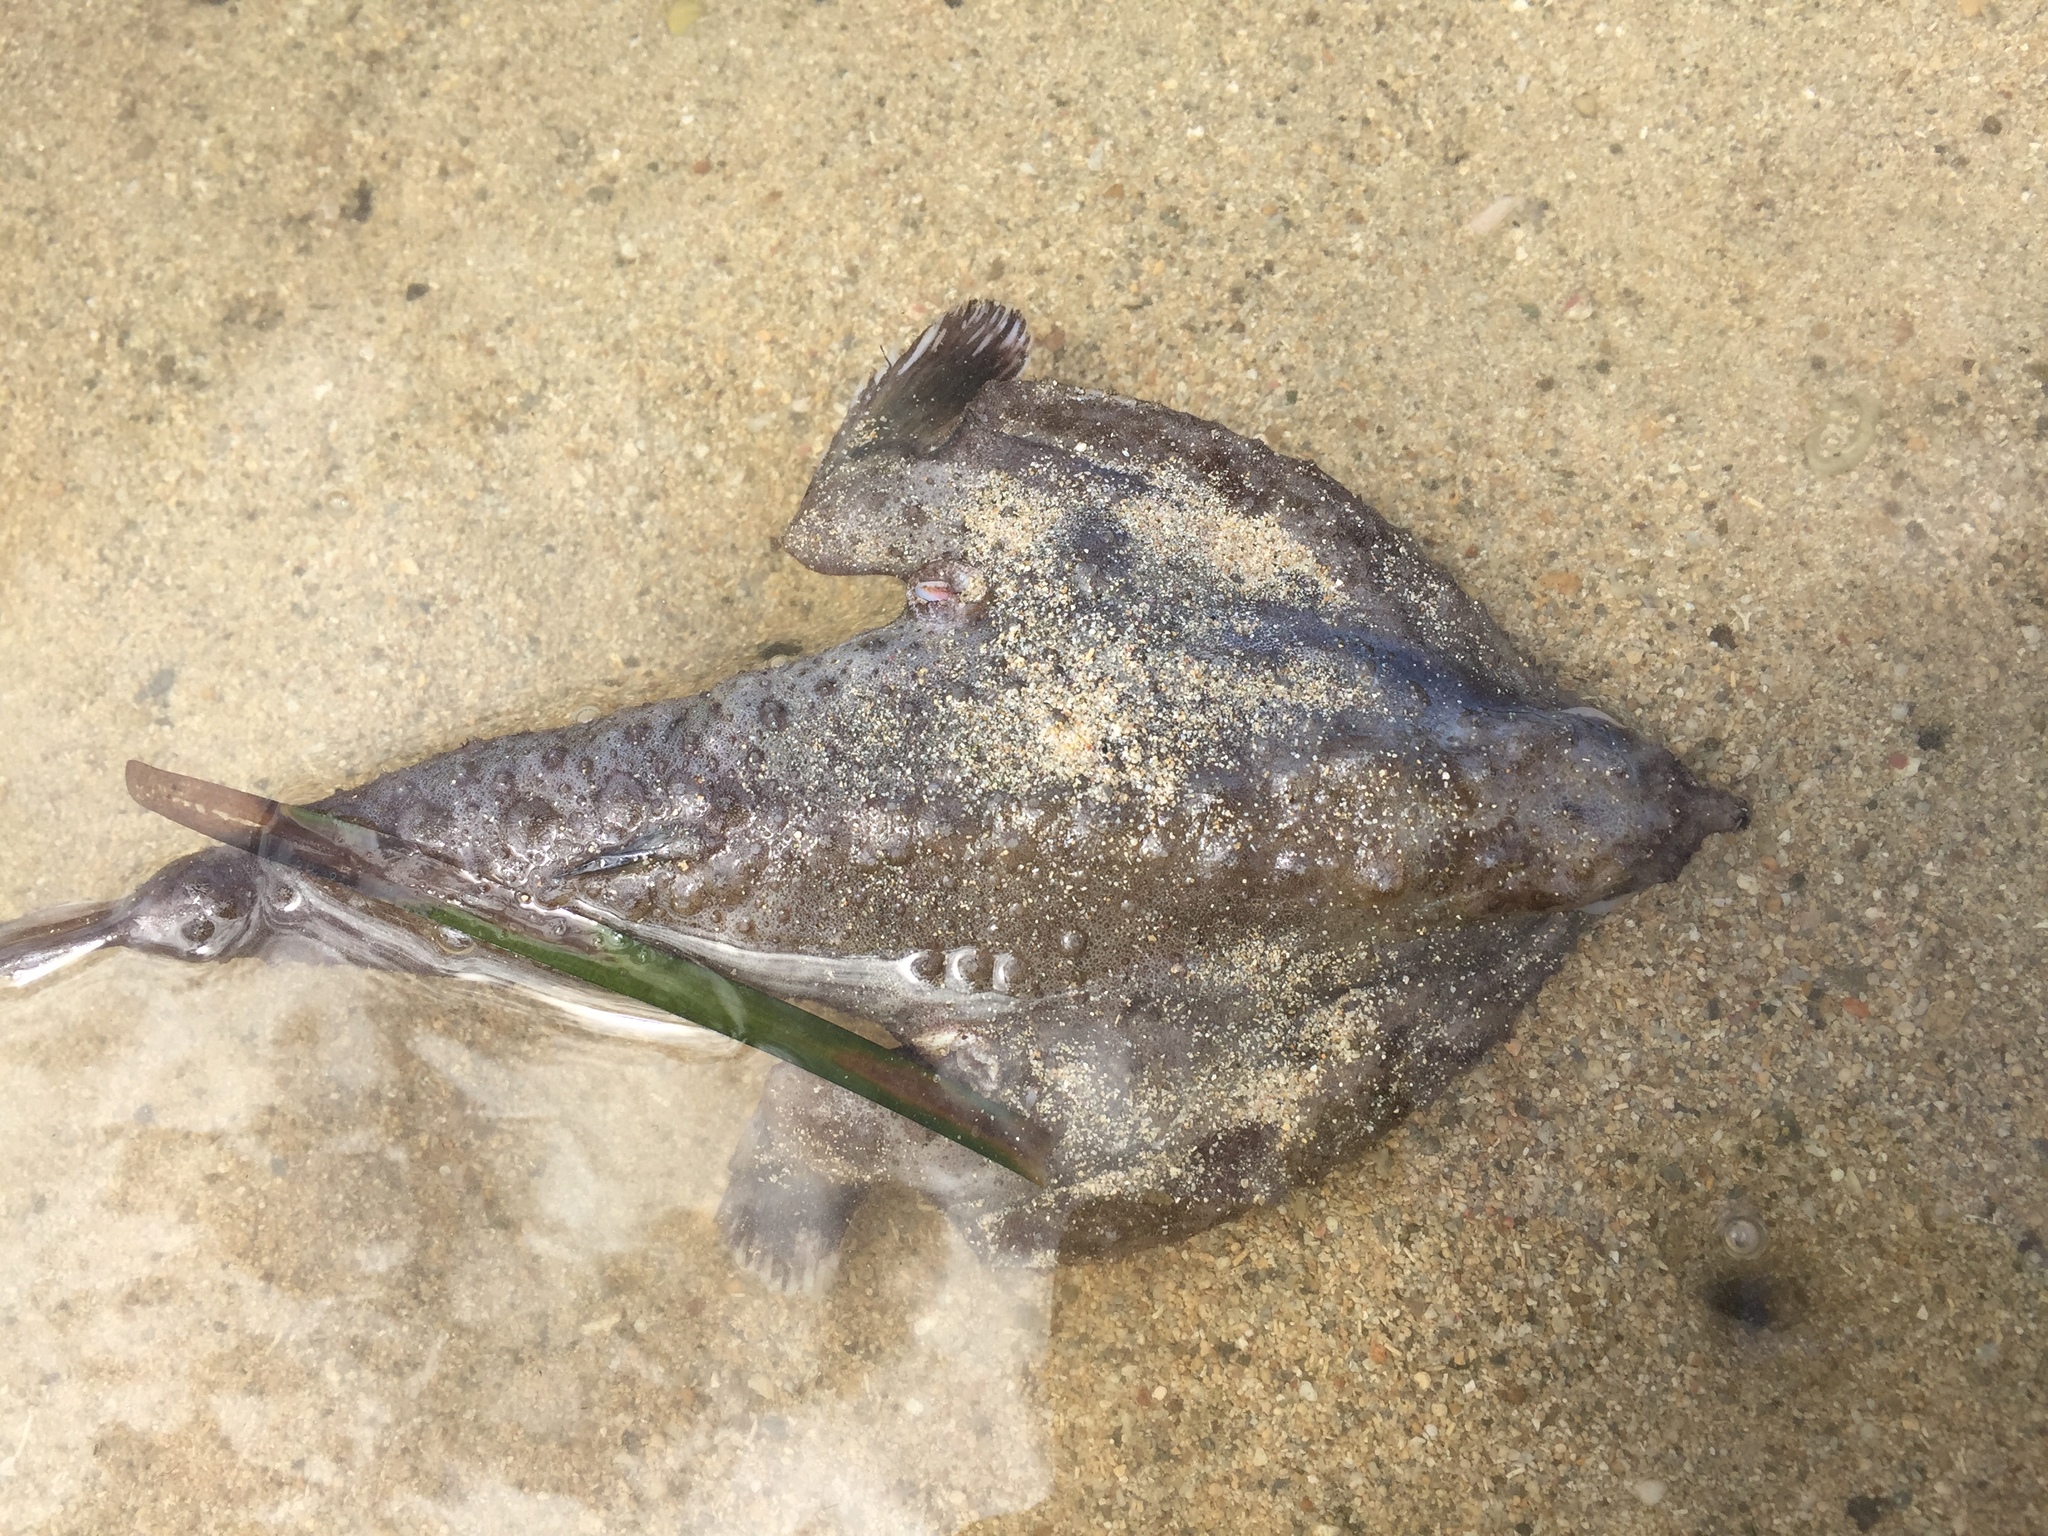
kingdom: Animalia
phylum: Chordata
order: Lophiiformes
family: Ogcocephalidae
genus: Ogcocephalus
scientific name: Ogcocephalus vespertilio
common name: Seadevil
